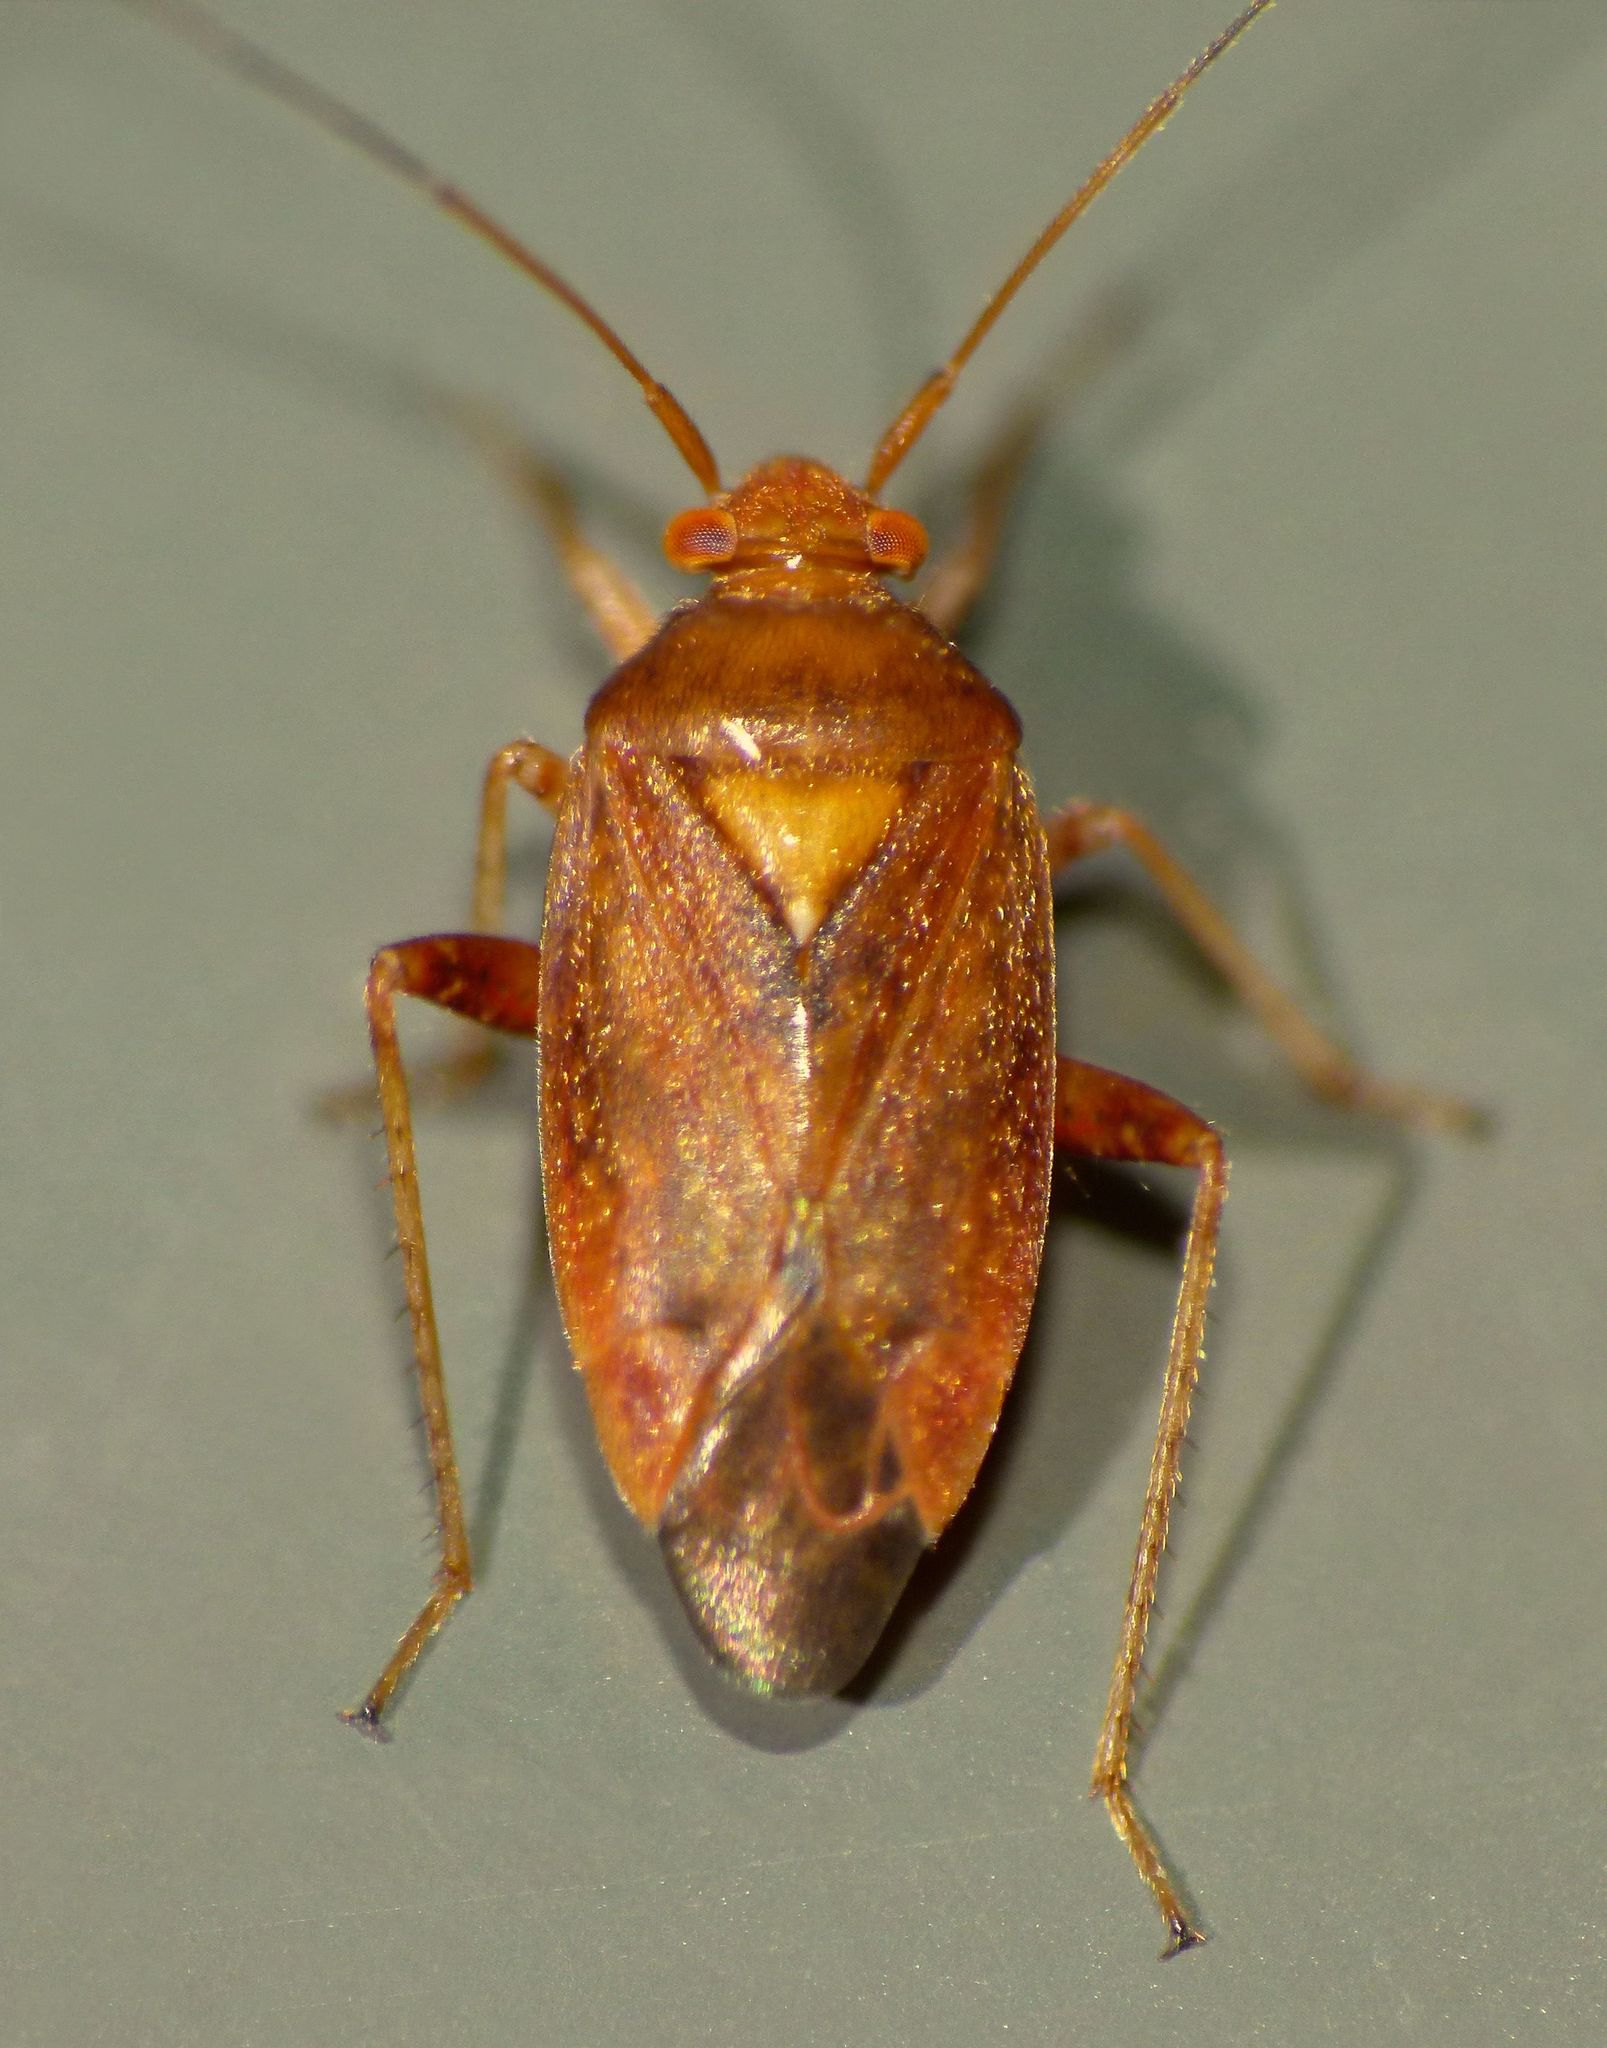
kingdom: Animalia
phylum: Arthropoda
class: Insecta
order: Hemiptera
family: Miridae
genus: Chinamiris
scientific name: Chinamiris unicolor
